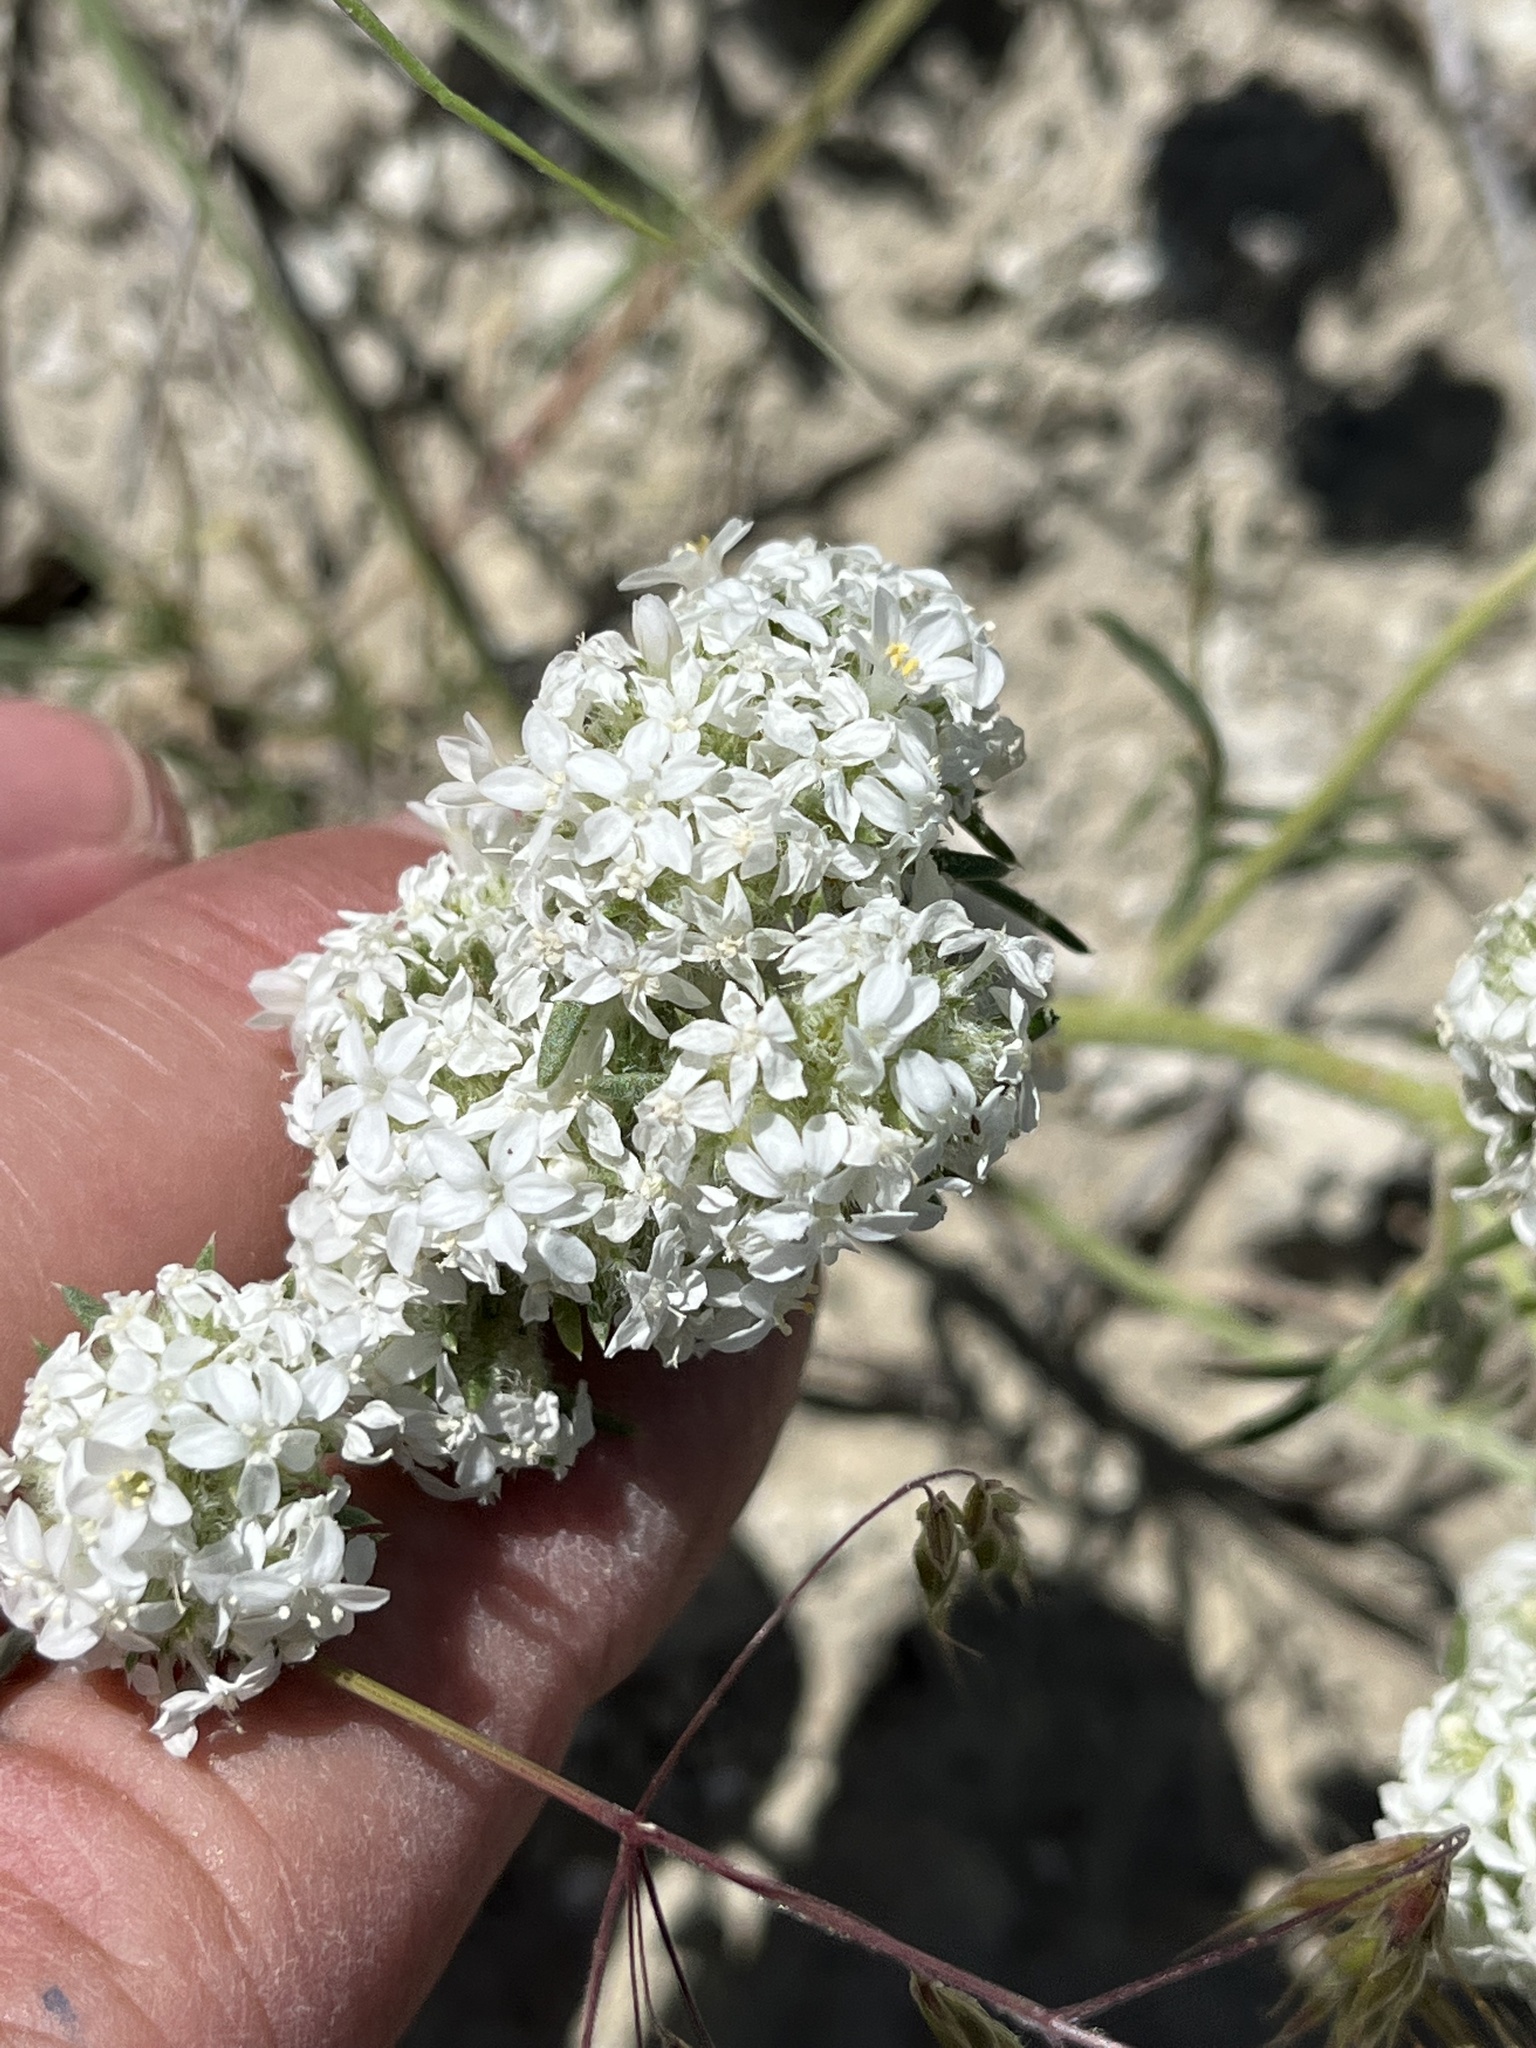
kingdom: Plantae
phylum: Tracheophyta
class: Magnoliopsida
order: Ericales
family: Polemoniaceae
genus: Ipomopsis
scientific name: Ipomopsis congesta
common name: Ball-head gilia
